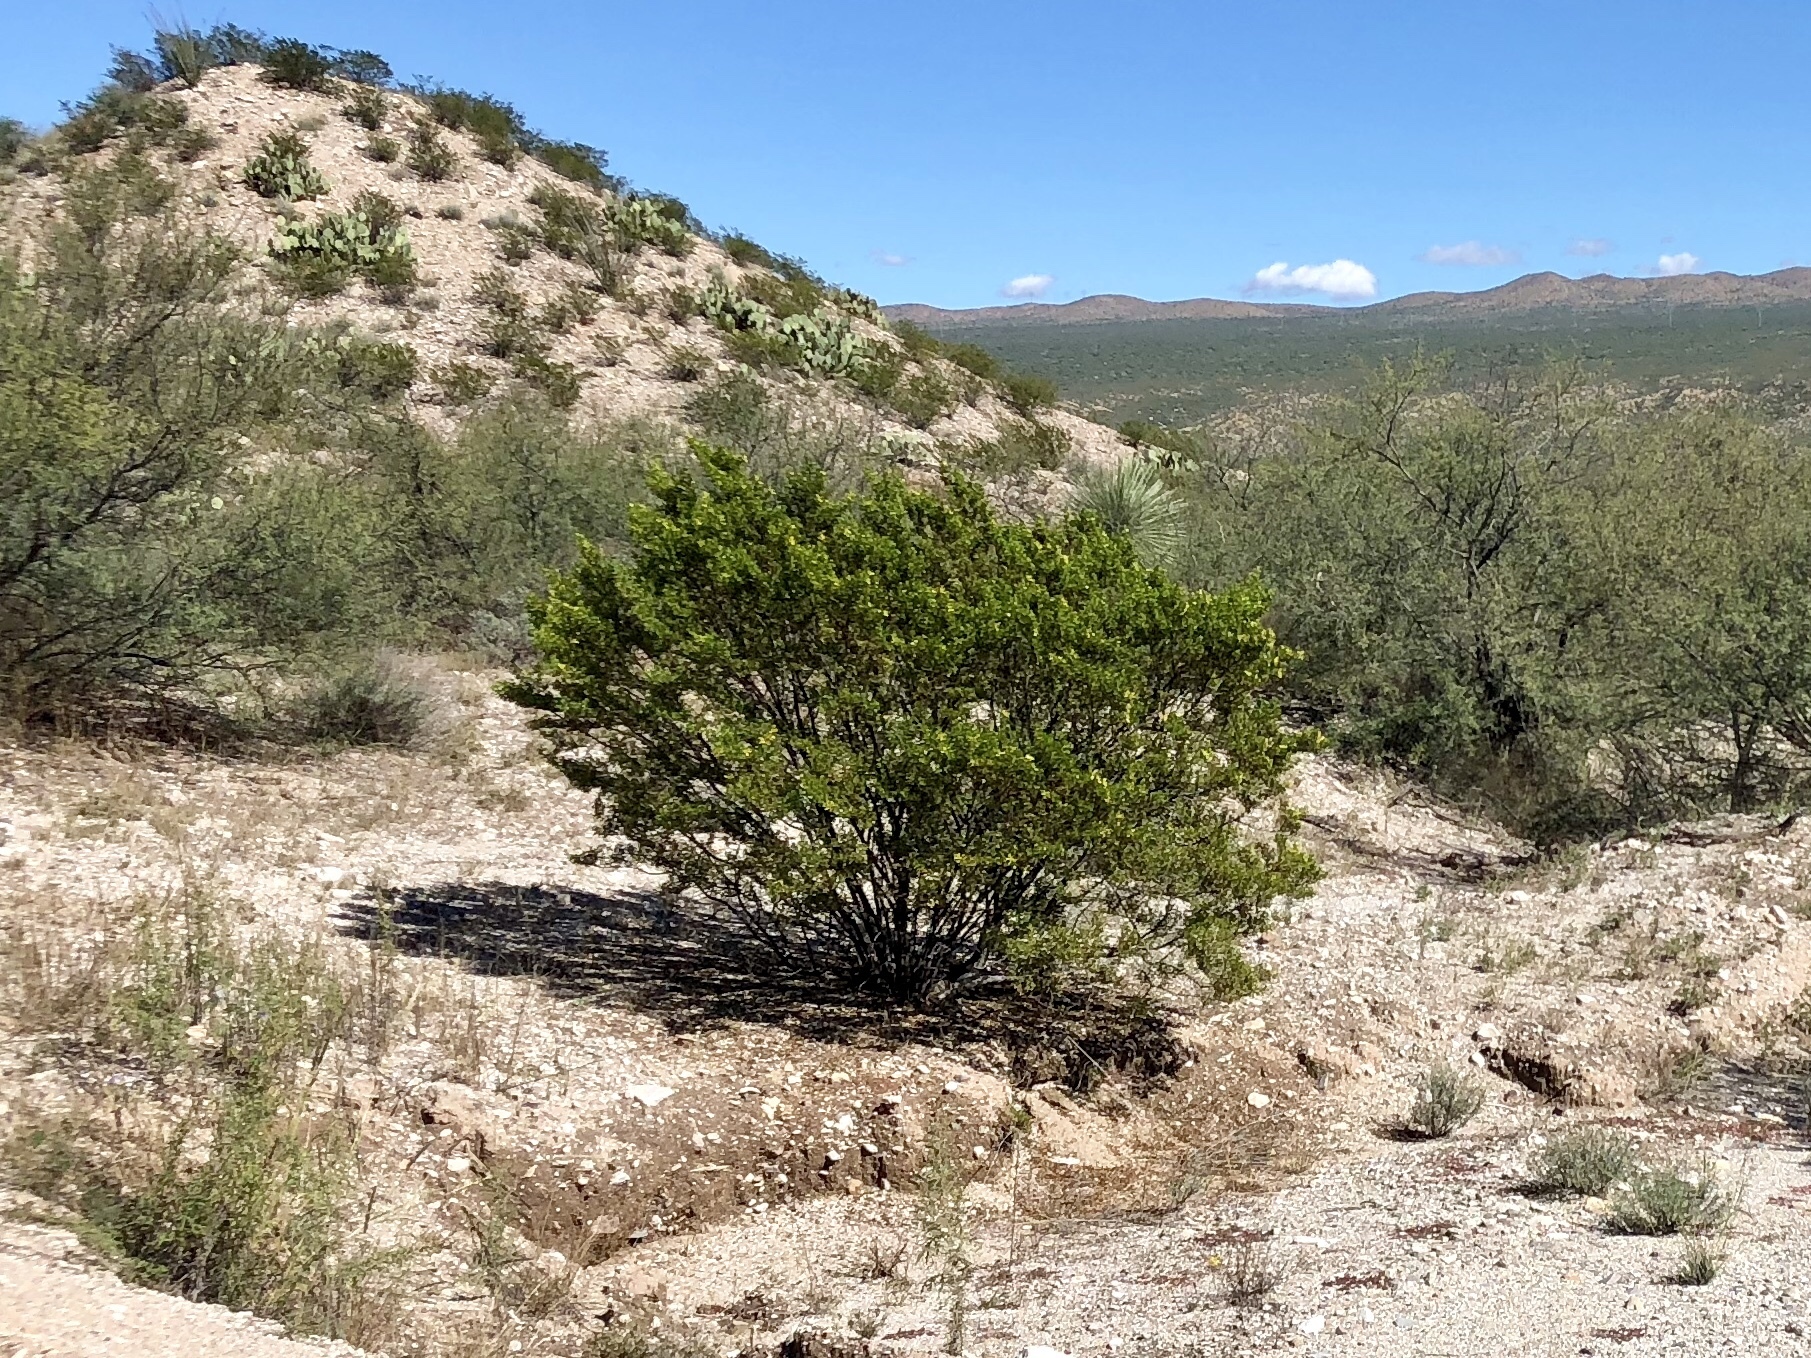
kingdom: Plantae
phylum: Tracheophyta
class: Magnoliopsida
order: Zygophyllales
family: Zygophyllaceae
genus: Larrea
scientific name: Larrea tridentata
